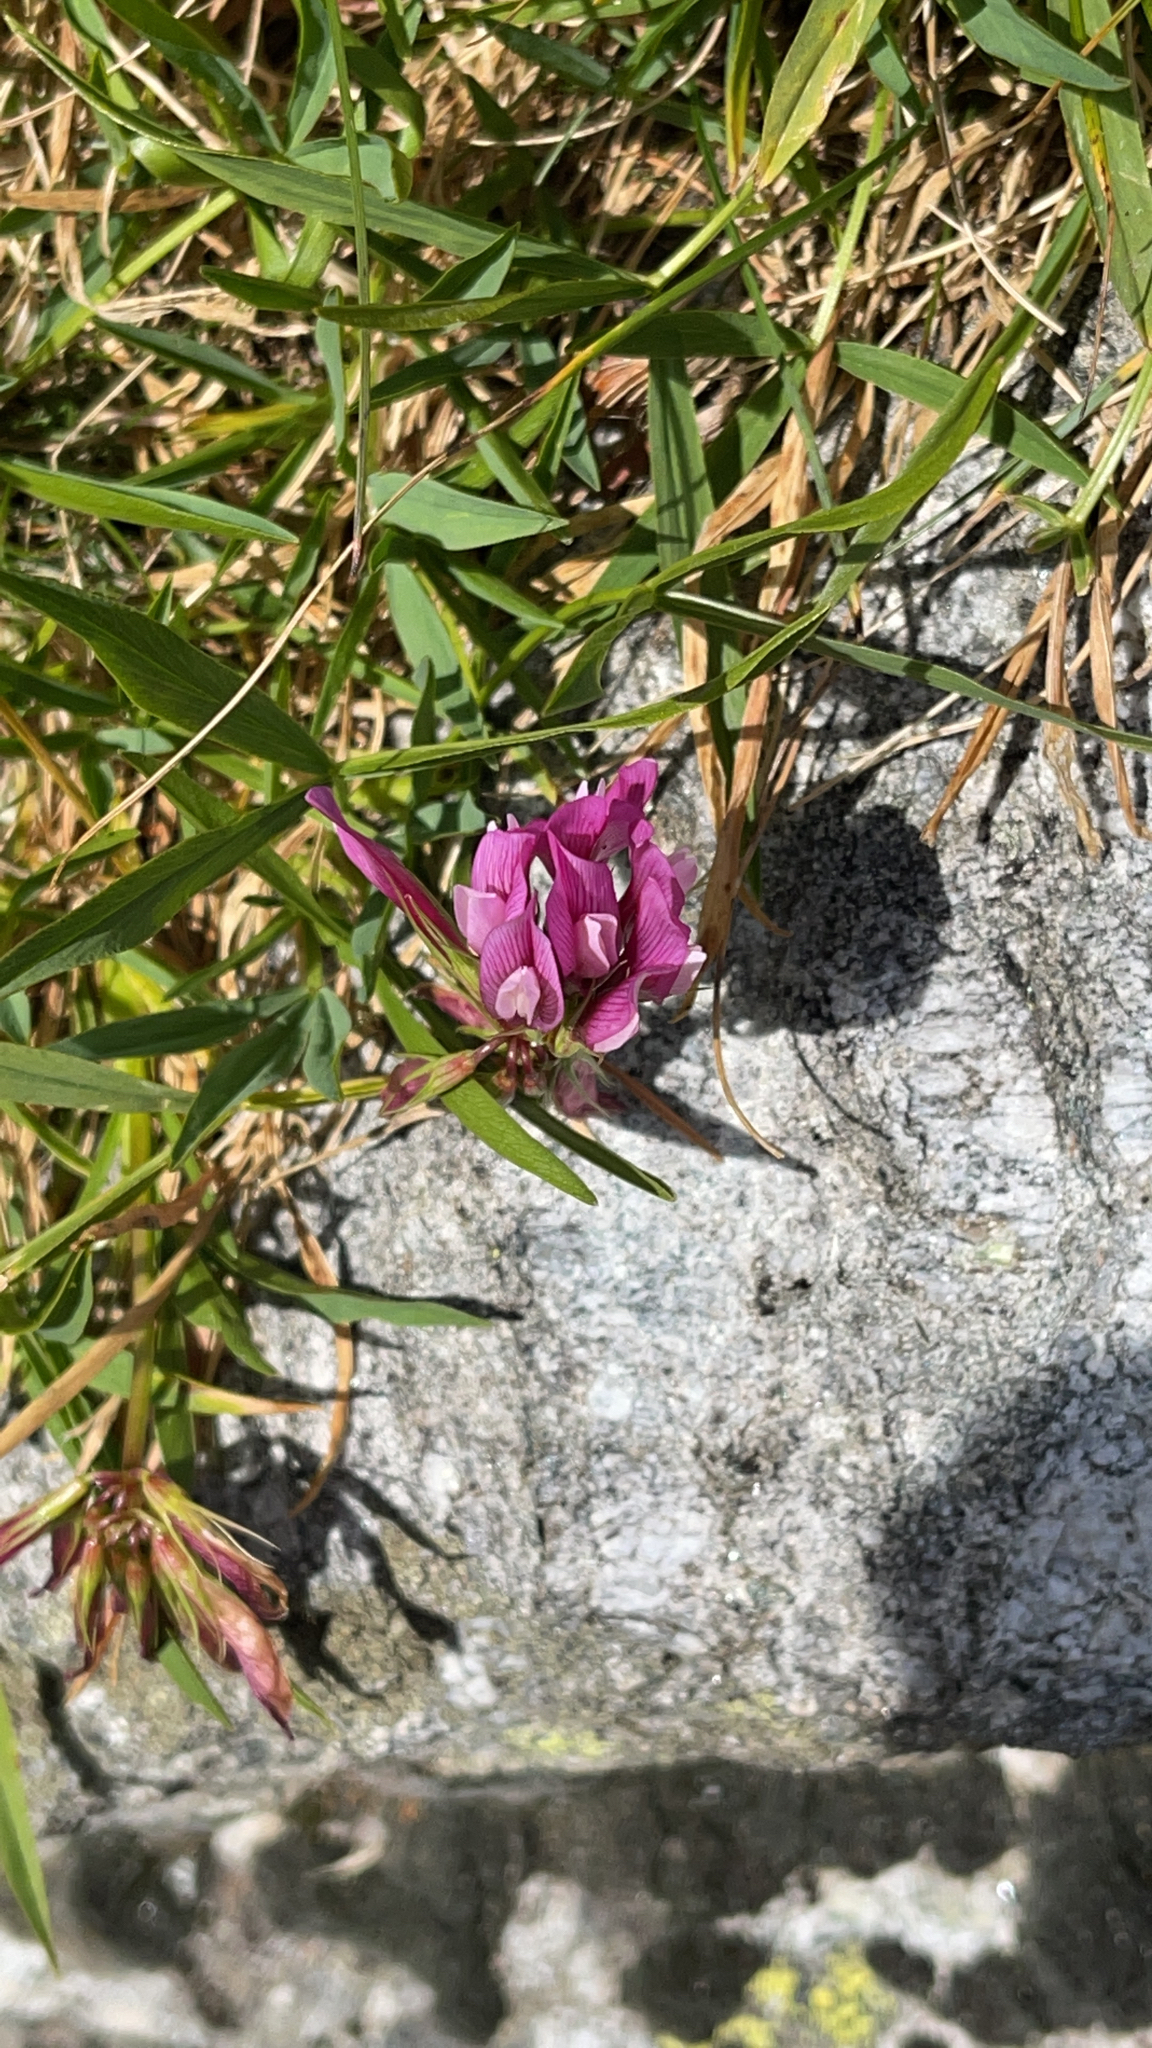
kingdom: Plantae
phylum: Tracheophyta
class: Magnoliopsida
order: Fabales
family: Fabaceae
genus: Trifolium
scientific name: Trifolium alpinum
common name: Alpine clover
